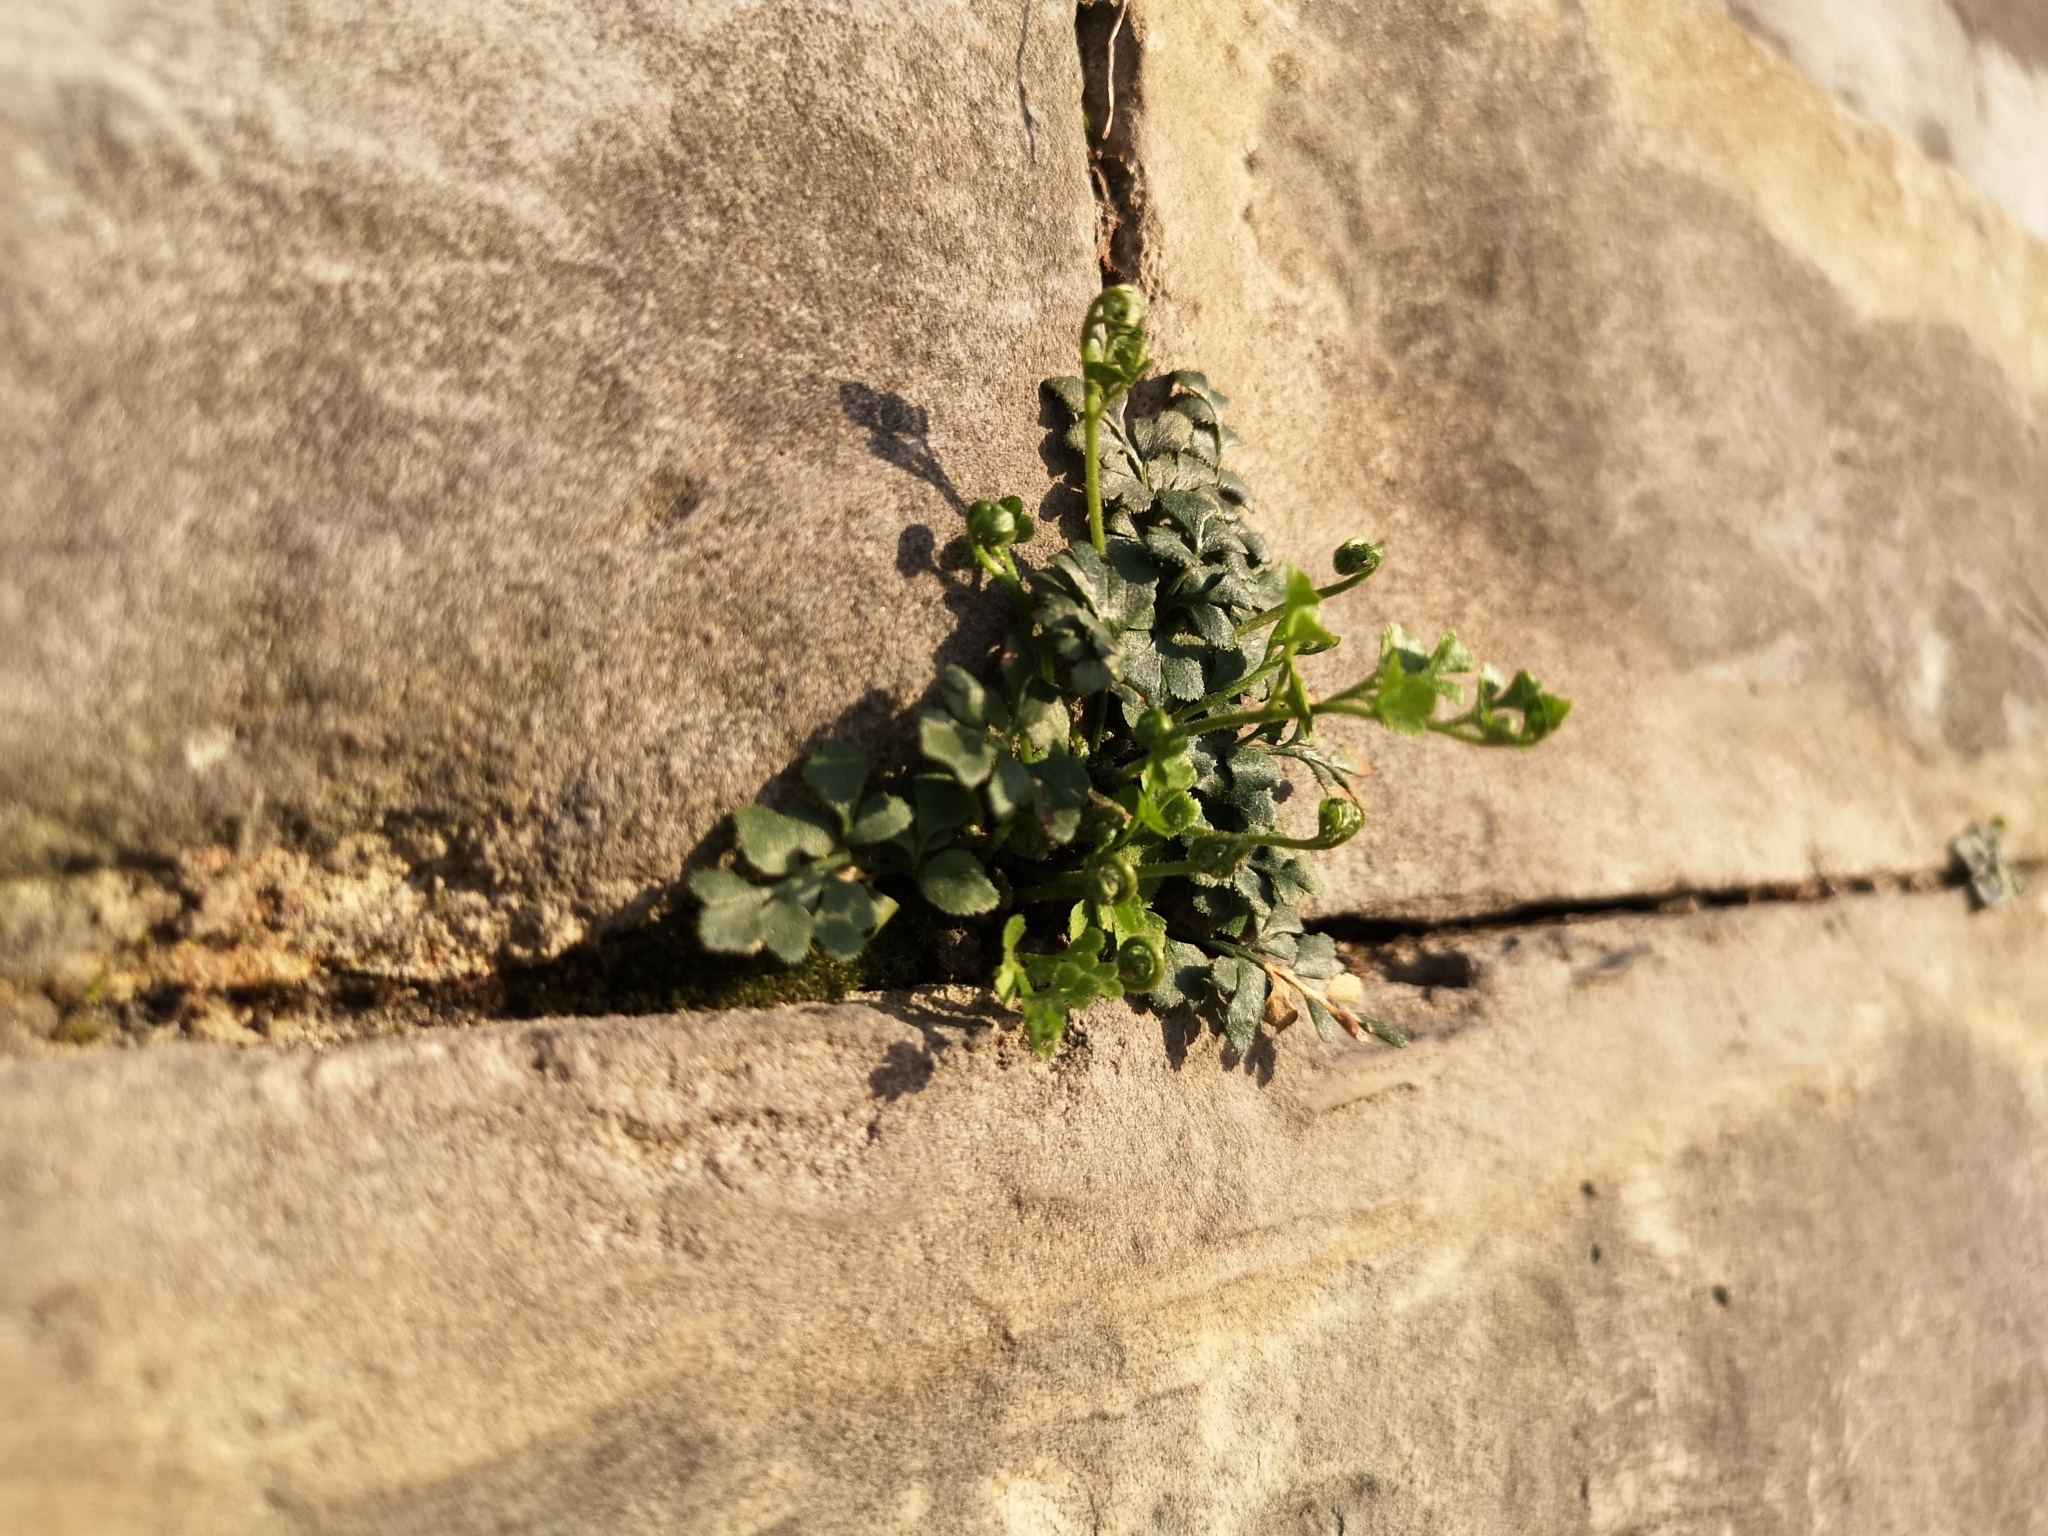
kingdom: Plantae
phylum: Tracheophyta
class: Polypodiopsida
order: Polypodiales
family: Aspleniaceae
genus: Asplenium
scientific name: Asplenium ruta-muraria
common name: Wall-rue
